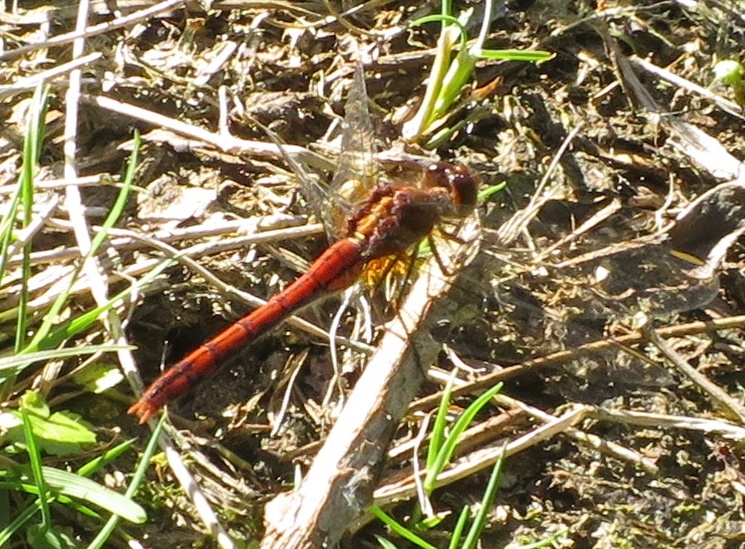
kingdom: Animalia
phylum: Arthropoda
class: Insecta
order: Odonata
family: Libellulidae
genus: Diplacodes
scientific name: Diplacodes bipunctata
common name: Red percher dragonfly
